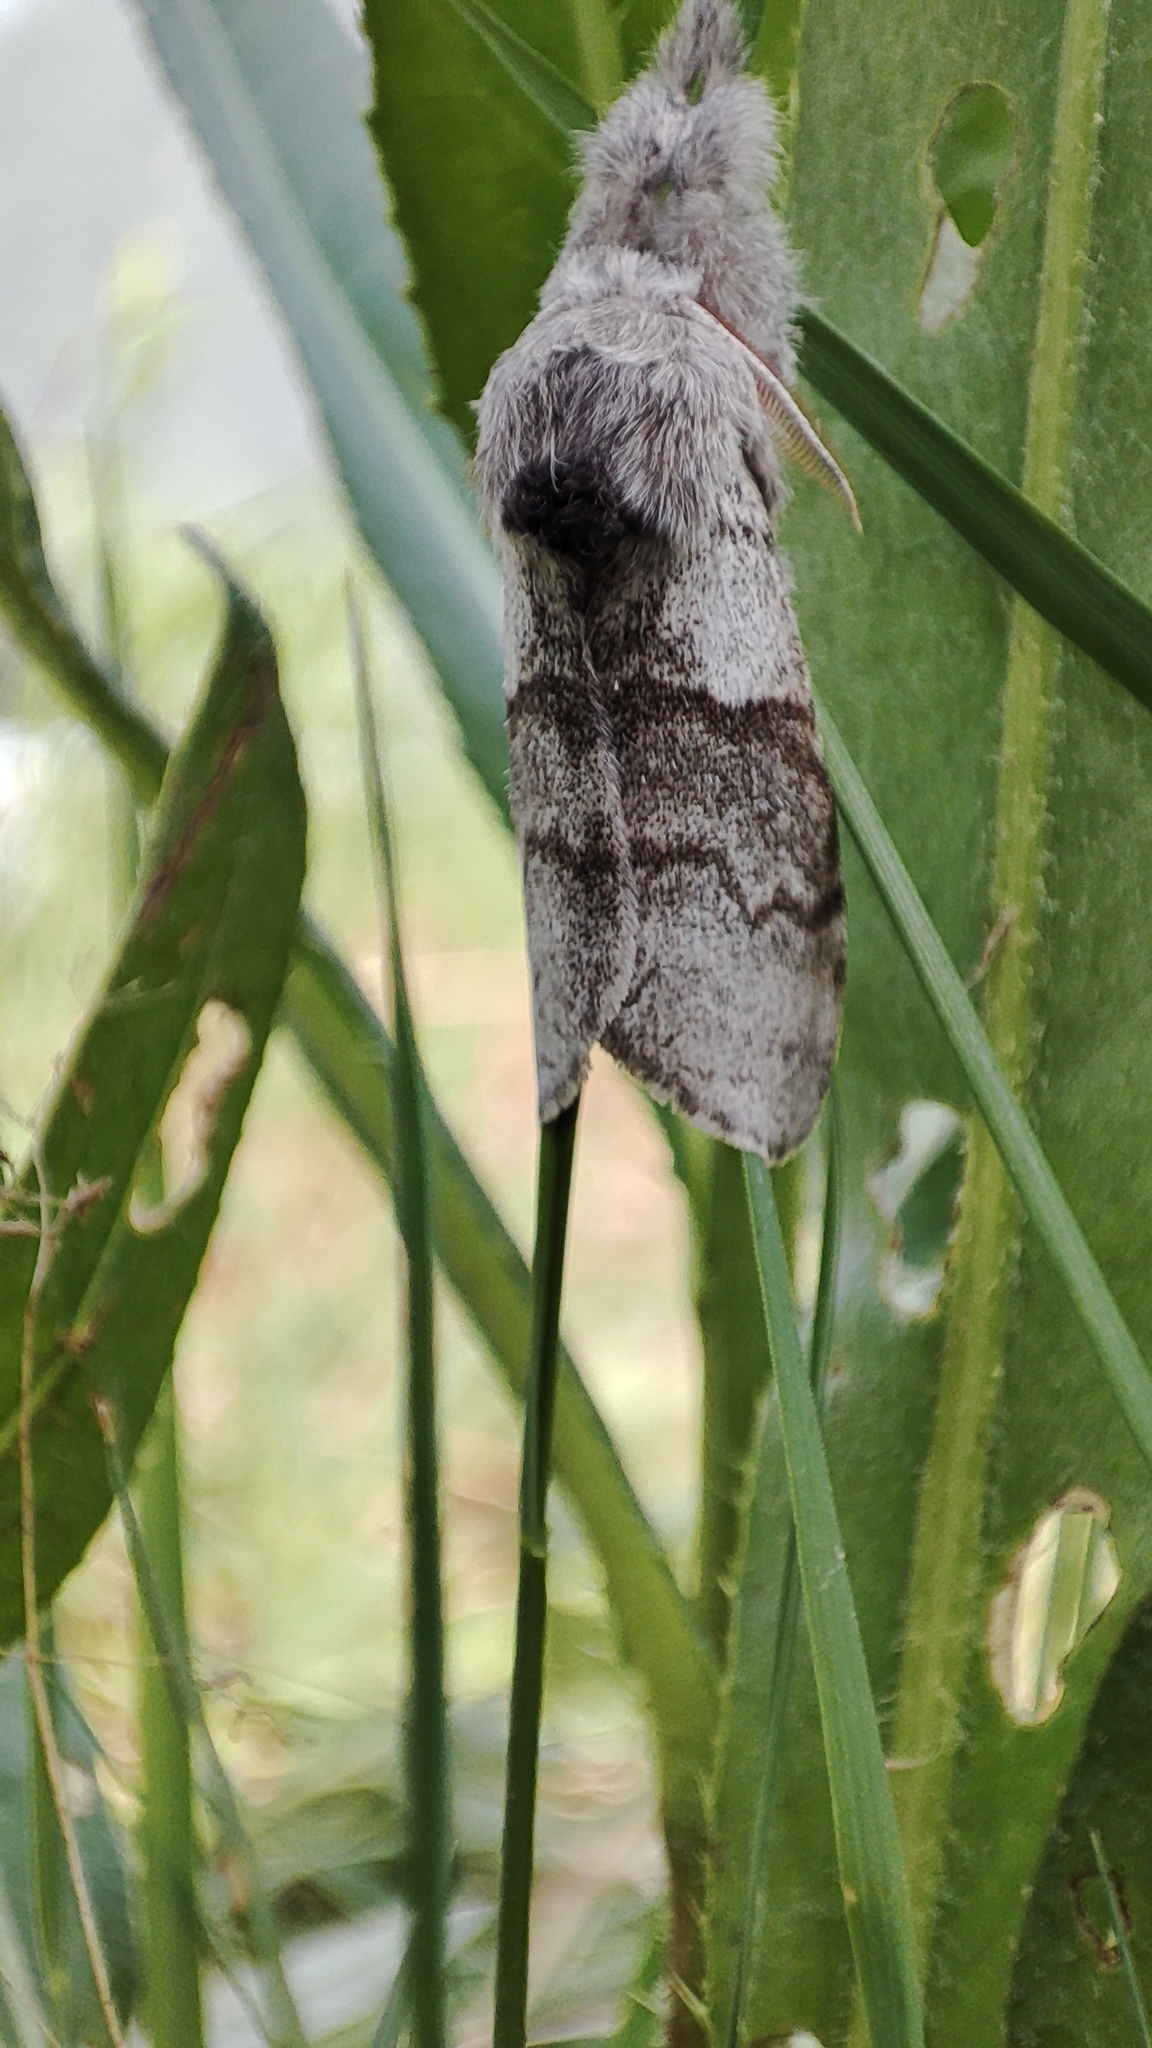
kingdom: Animalia
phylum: Arthropoda
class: Insecta
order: Lepidoptera
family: Erebidae
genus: Calliteara
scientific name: Calliteara pudibunda
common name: Pale tussock
